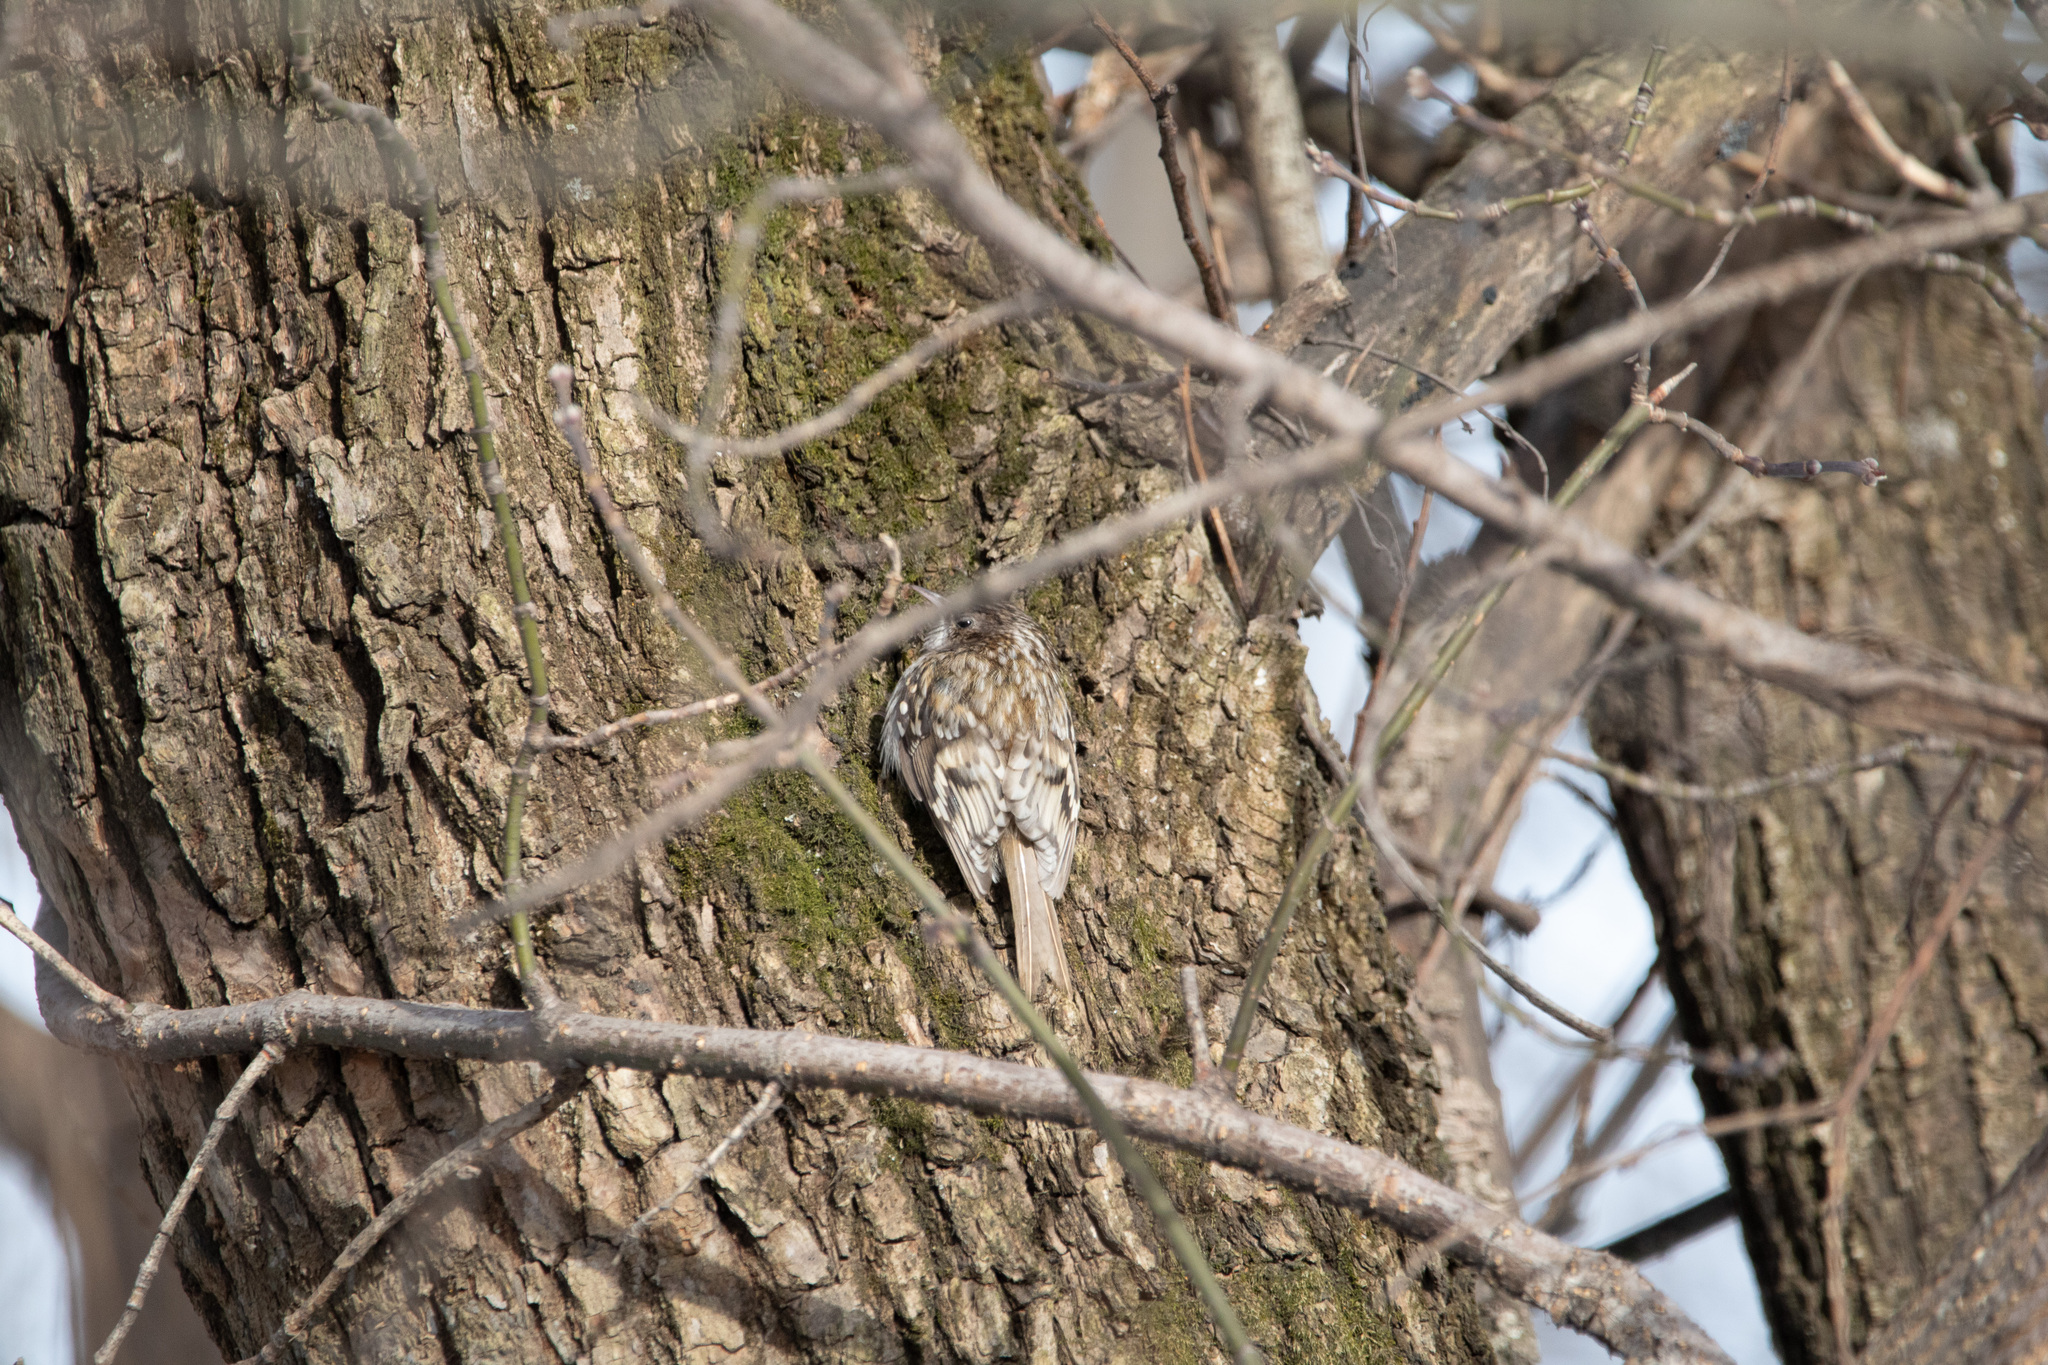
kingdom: Animalia
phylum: Chordata
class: Aves
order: Passeriformes
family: Certhiidae
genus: Certhia
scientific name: Certhia familiaris
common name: Eurasian treecreeper
